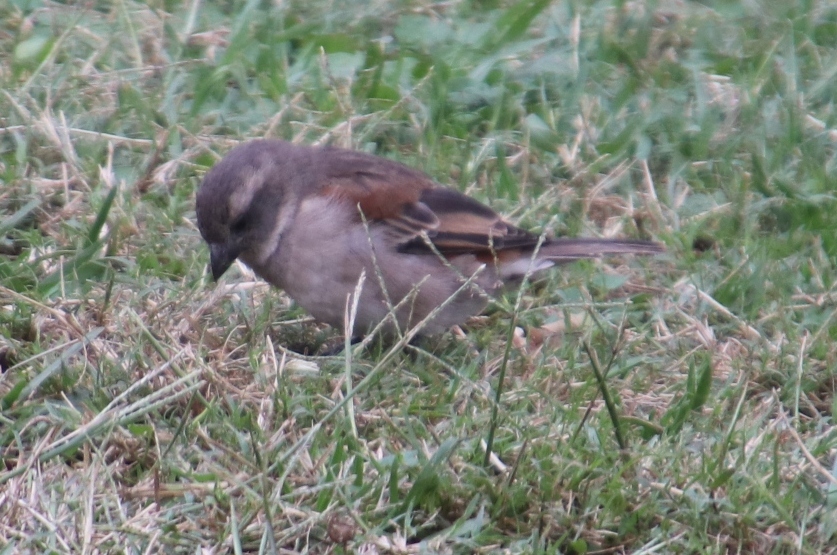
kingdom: Animalia
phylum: Chordata
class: Aves
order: Passeriformes
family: Passeridae
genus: Passer
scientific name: Passer melanurus
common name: Cape sparrow
